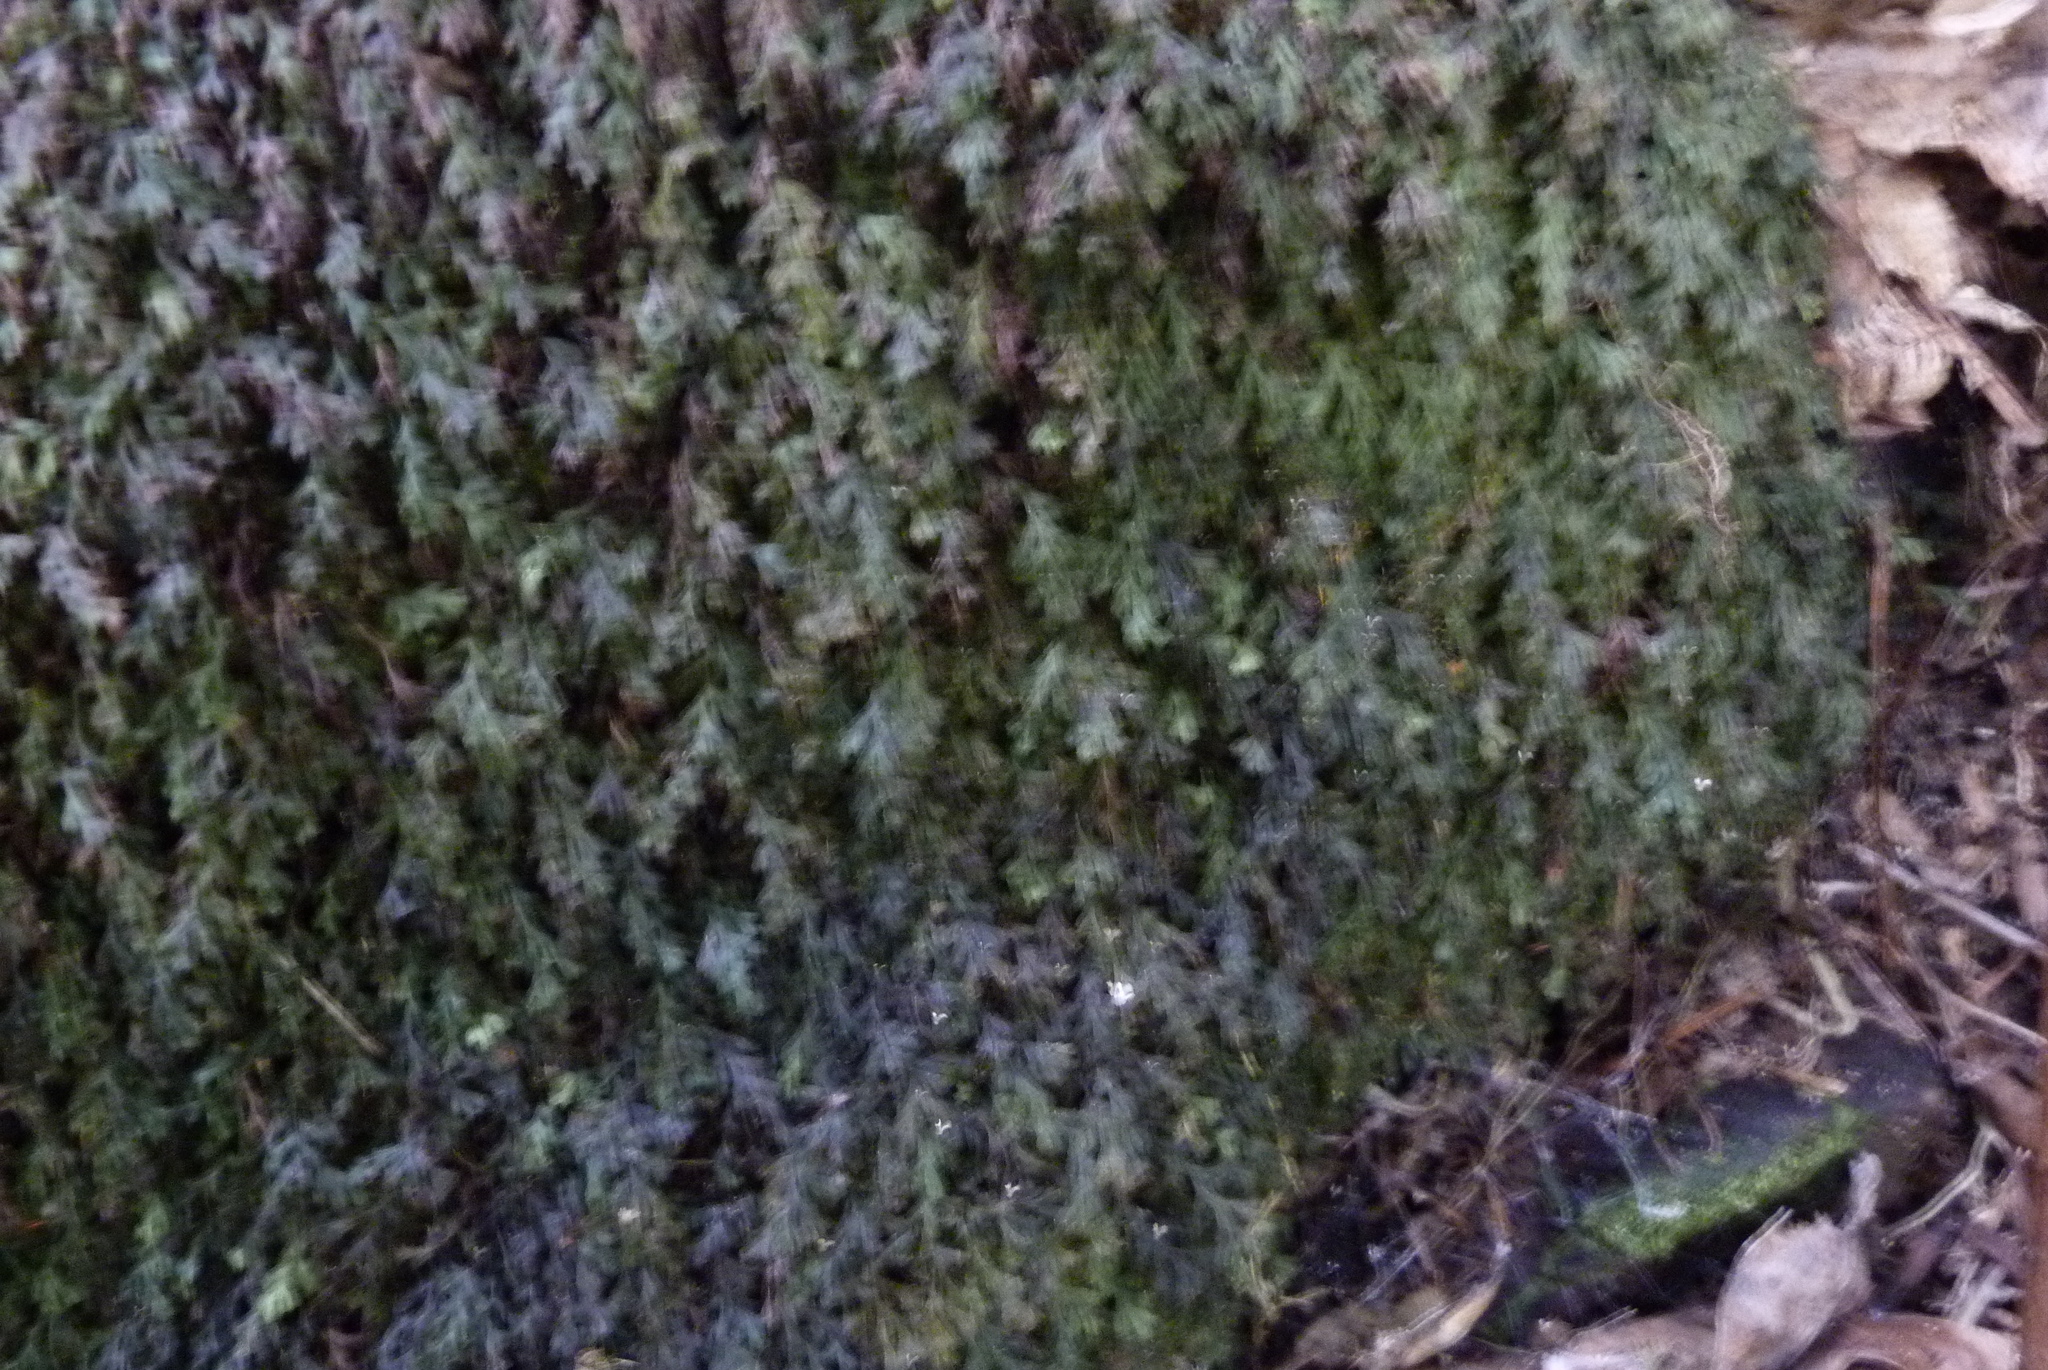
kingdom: Plantae
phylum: Tracheophyta
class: Polypodiopsida
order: Hymenophyllales
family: Hymenophyllaceae
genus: Polyphlebium
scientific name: Polyphlebium endlicherianum
